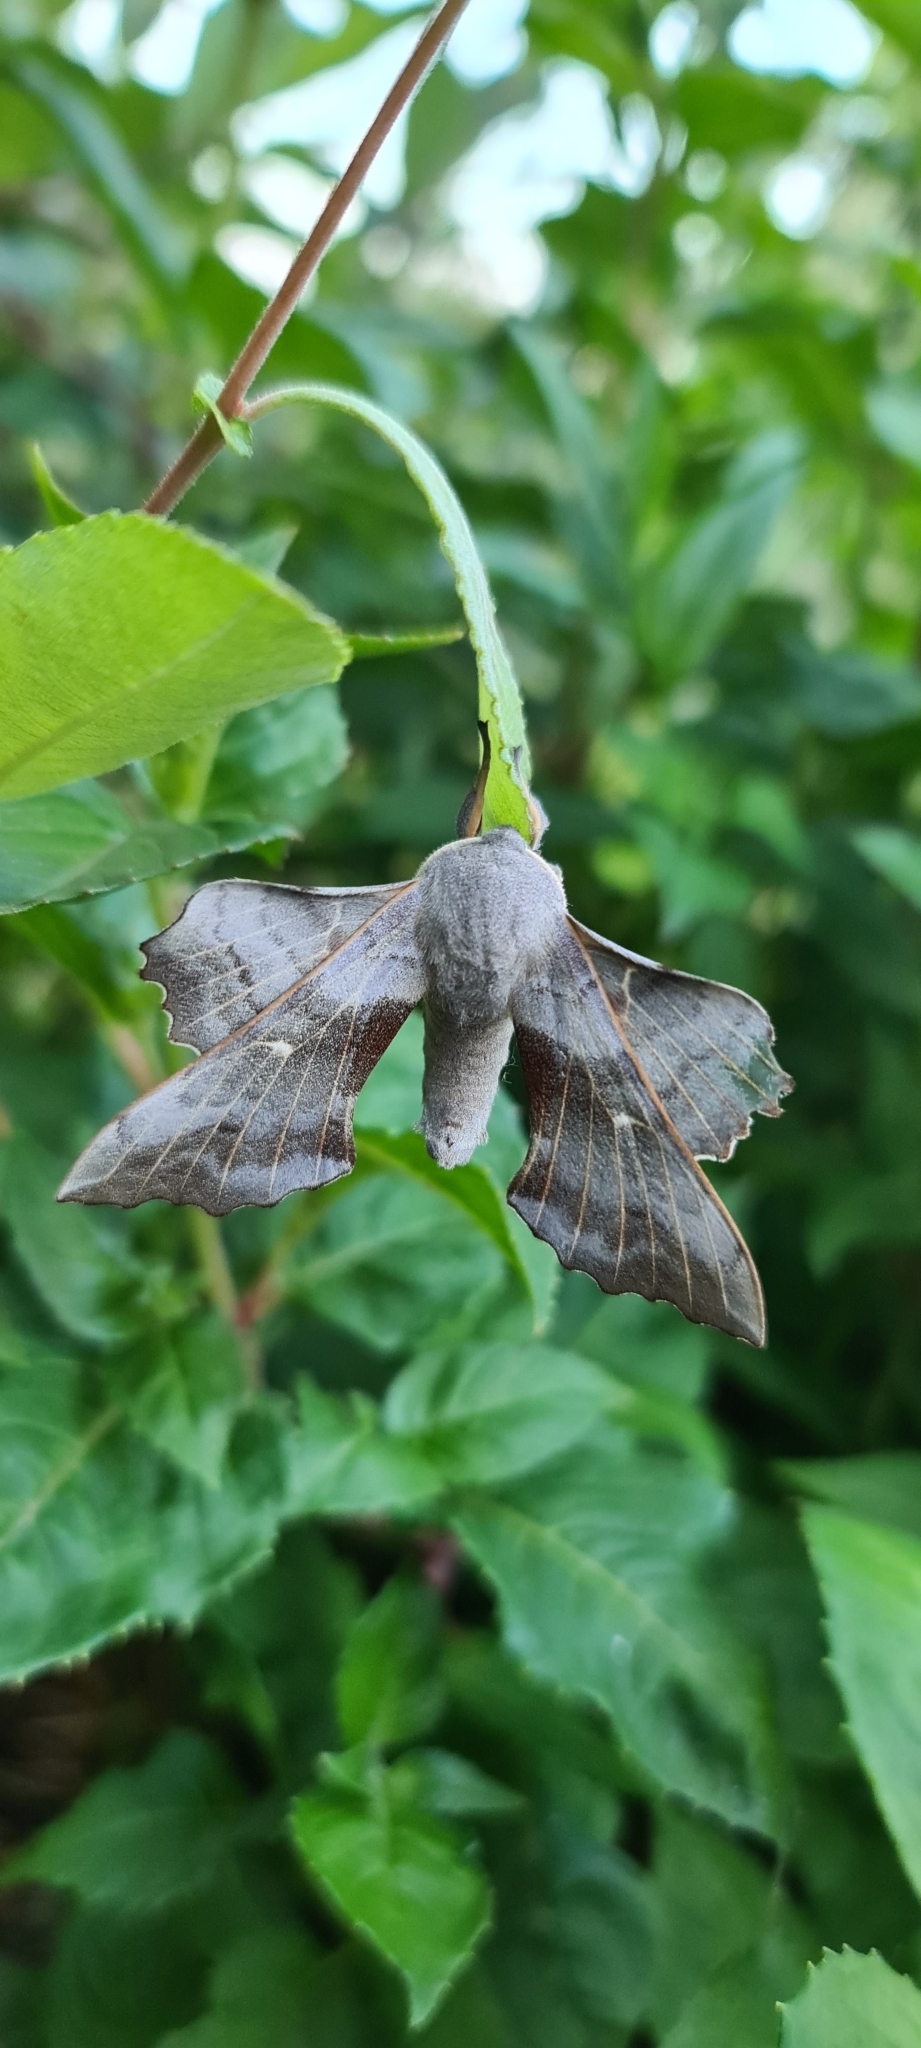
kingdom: Animalia
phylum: Arthropoda
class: Insecta
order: Lepidoptera
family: Sphingidae
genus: Laothoe
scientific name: Laothoe populi
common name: Poplar hawk-moth
